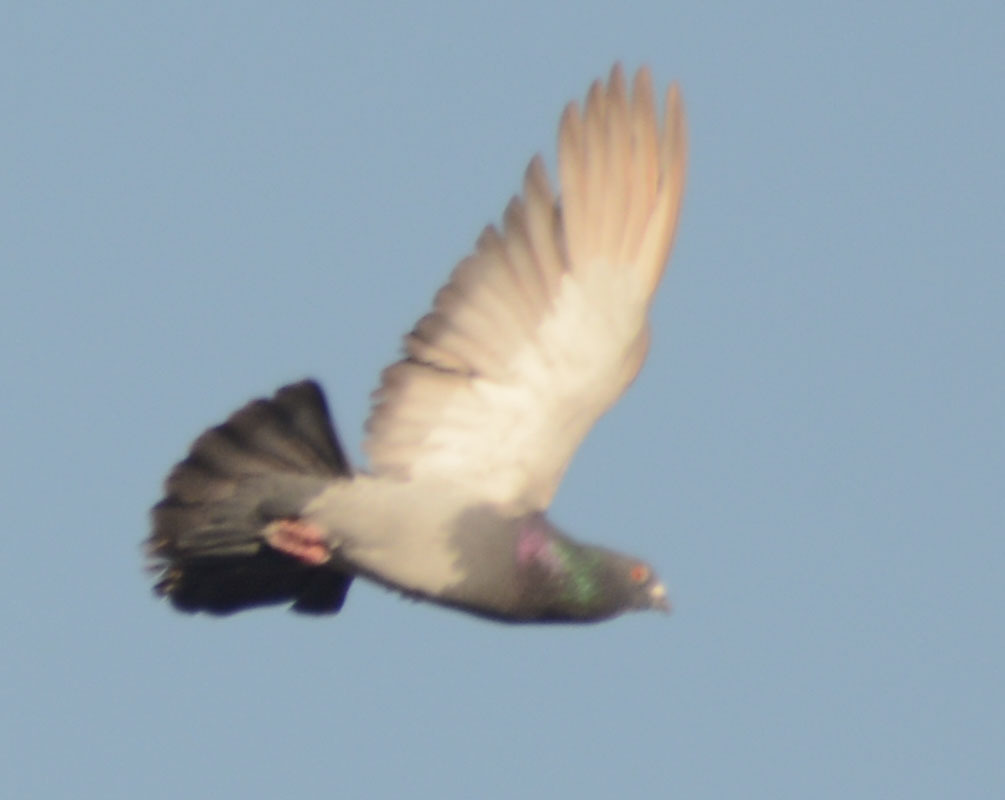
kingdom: Animalia
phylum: Chordata
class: Aves
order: Columbiformes
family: Columbidae
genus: Columba
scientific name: Columba livia
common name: Rock pigeon
